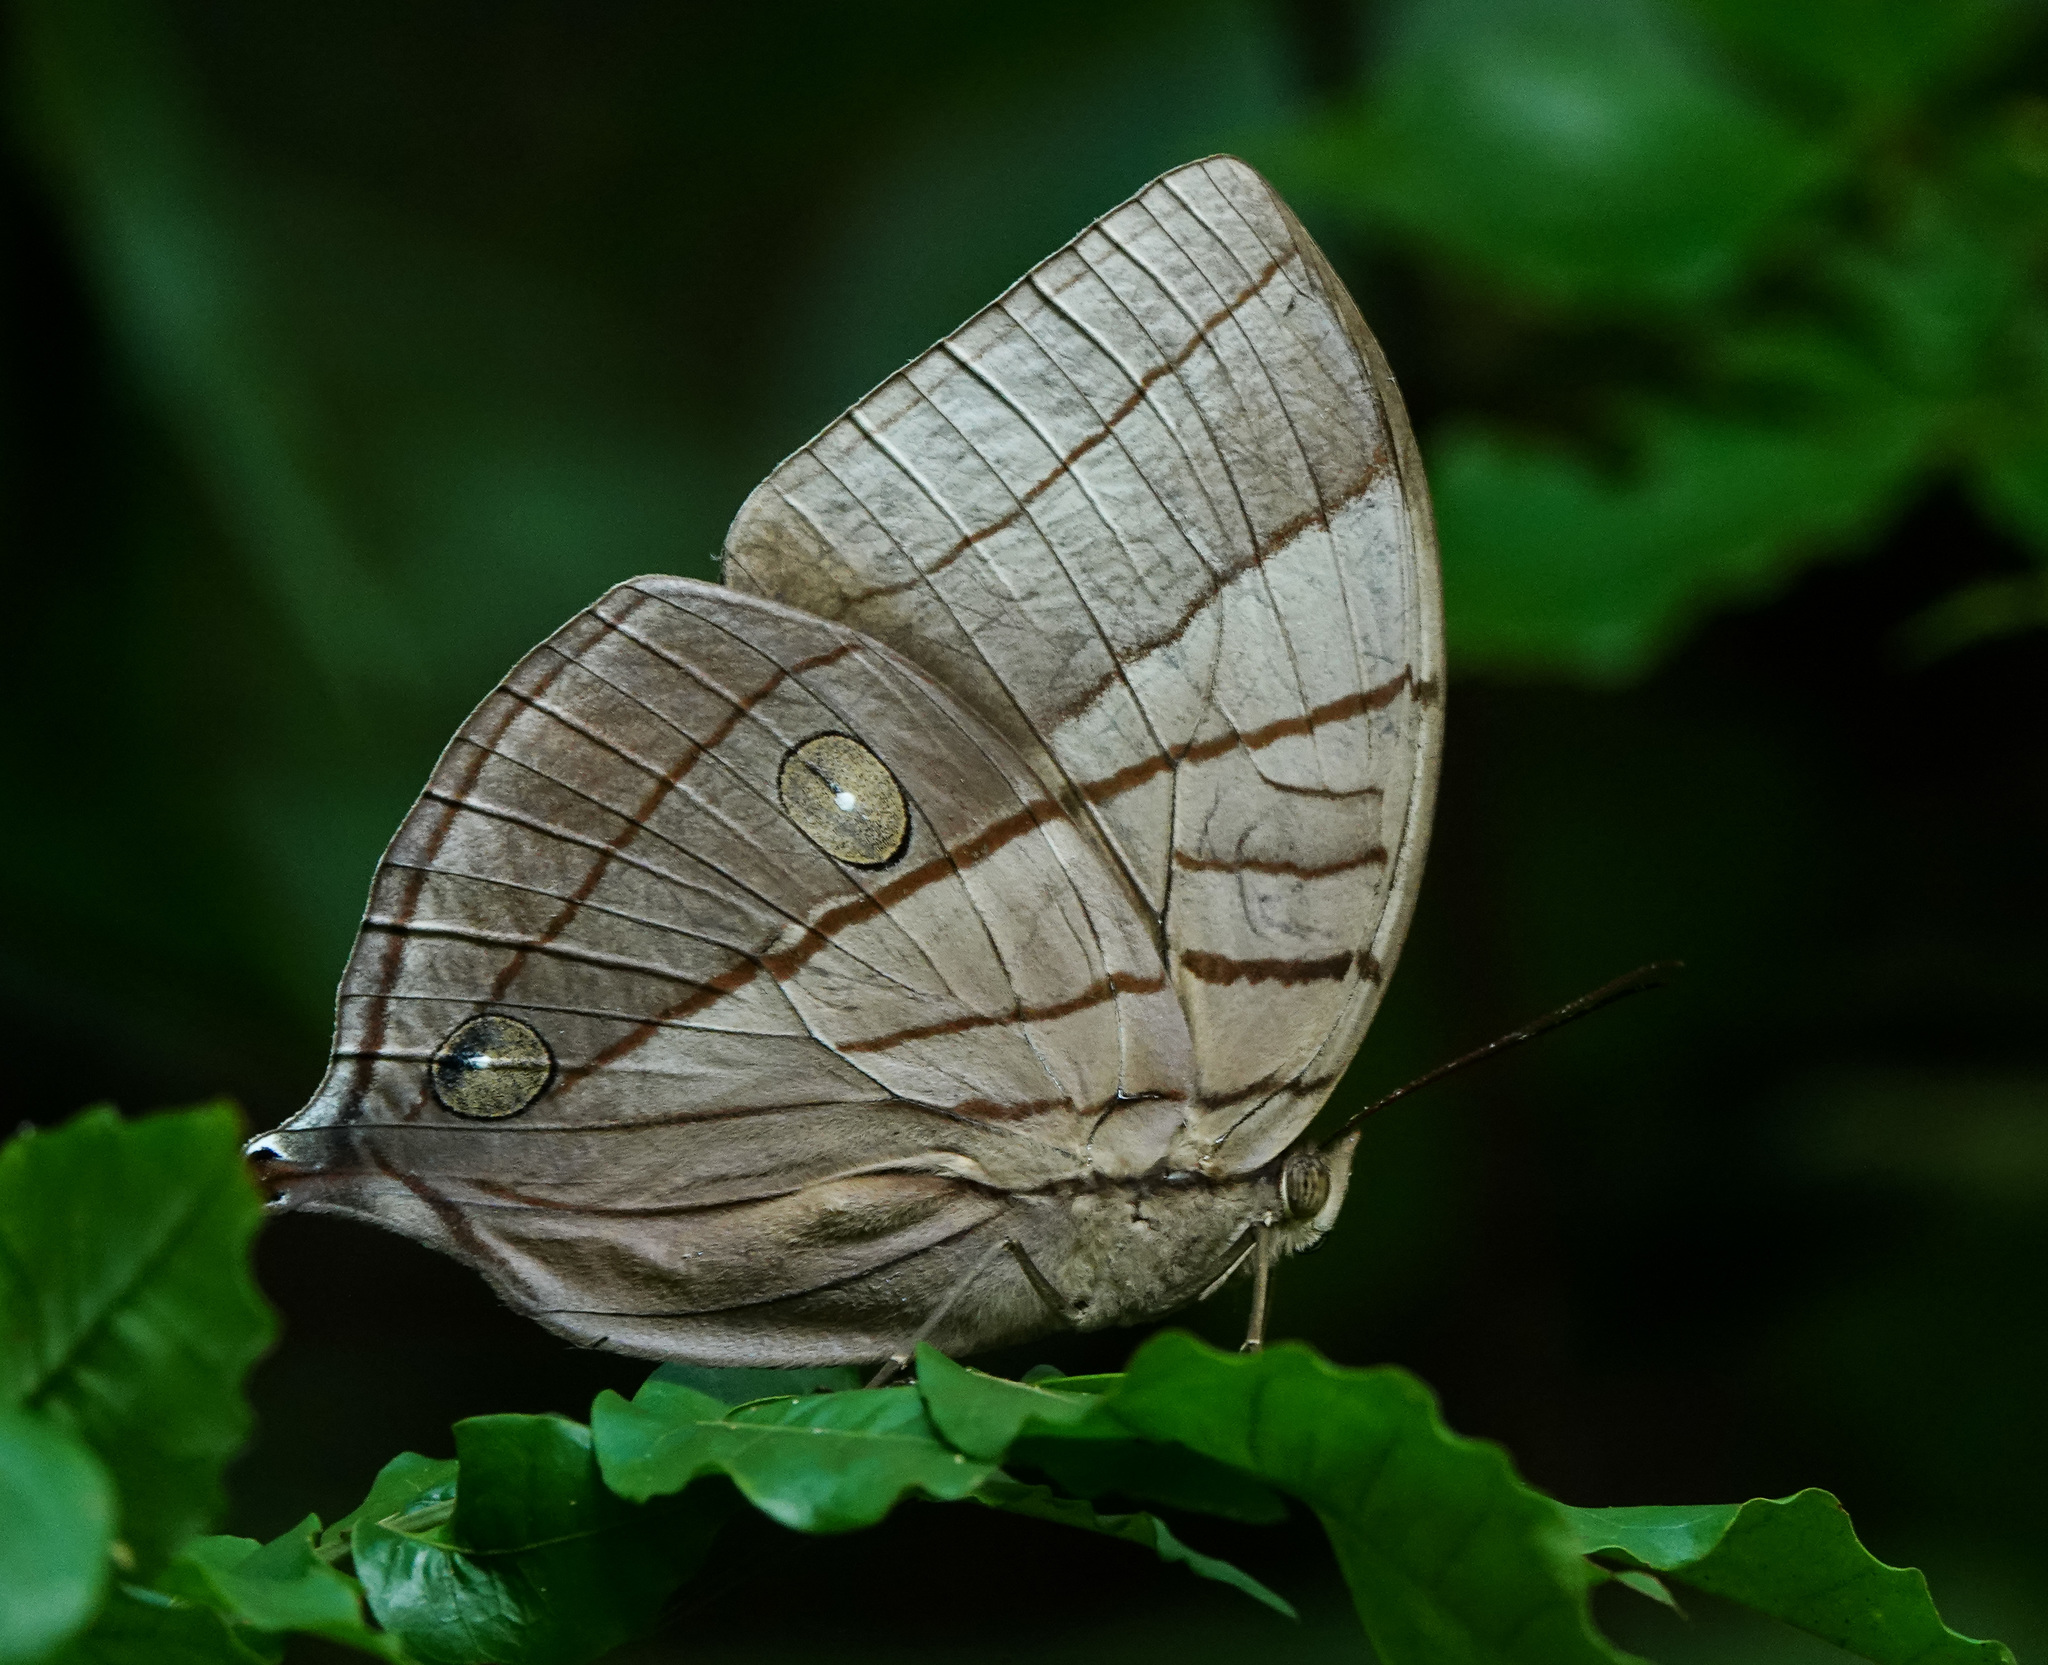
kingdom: Animalia
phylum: Arthropoda
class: Insecta
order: Lepidoptera
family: Nymphalidae
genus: Amathuxidia
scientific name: Amathuxidia amythaon
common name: Koh-i-noor
